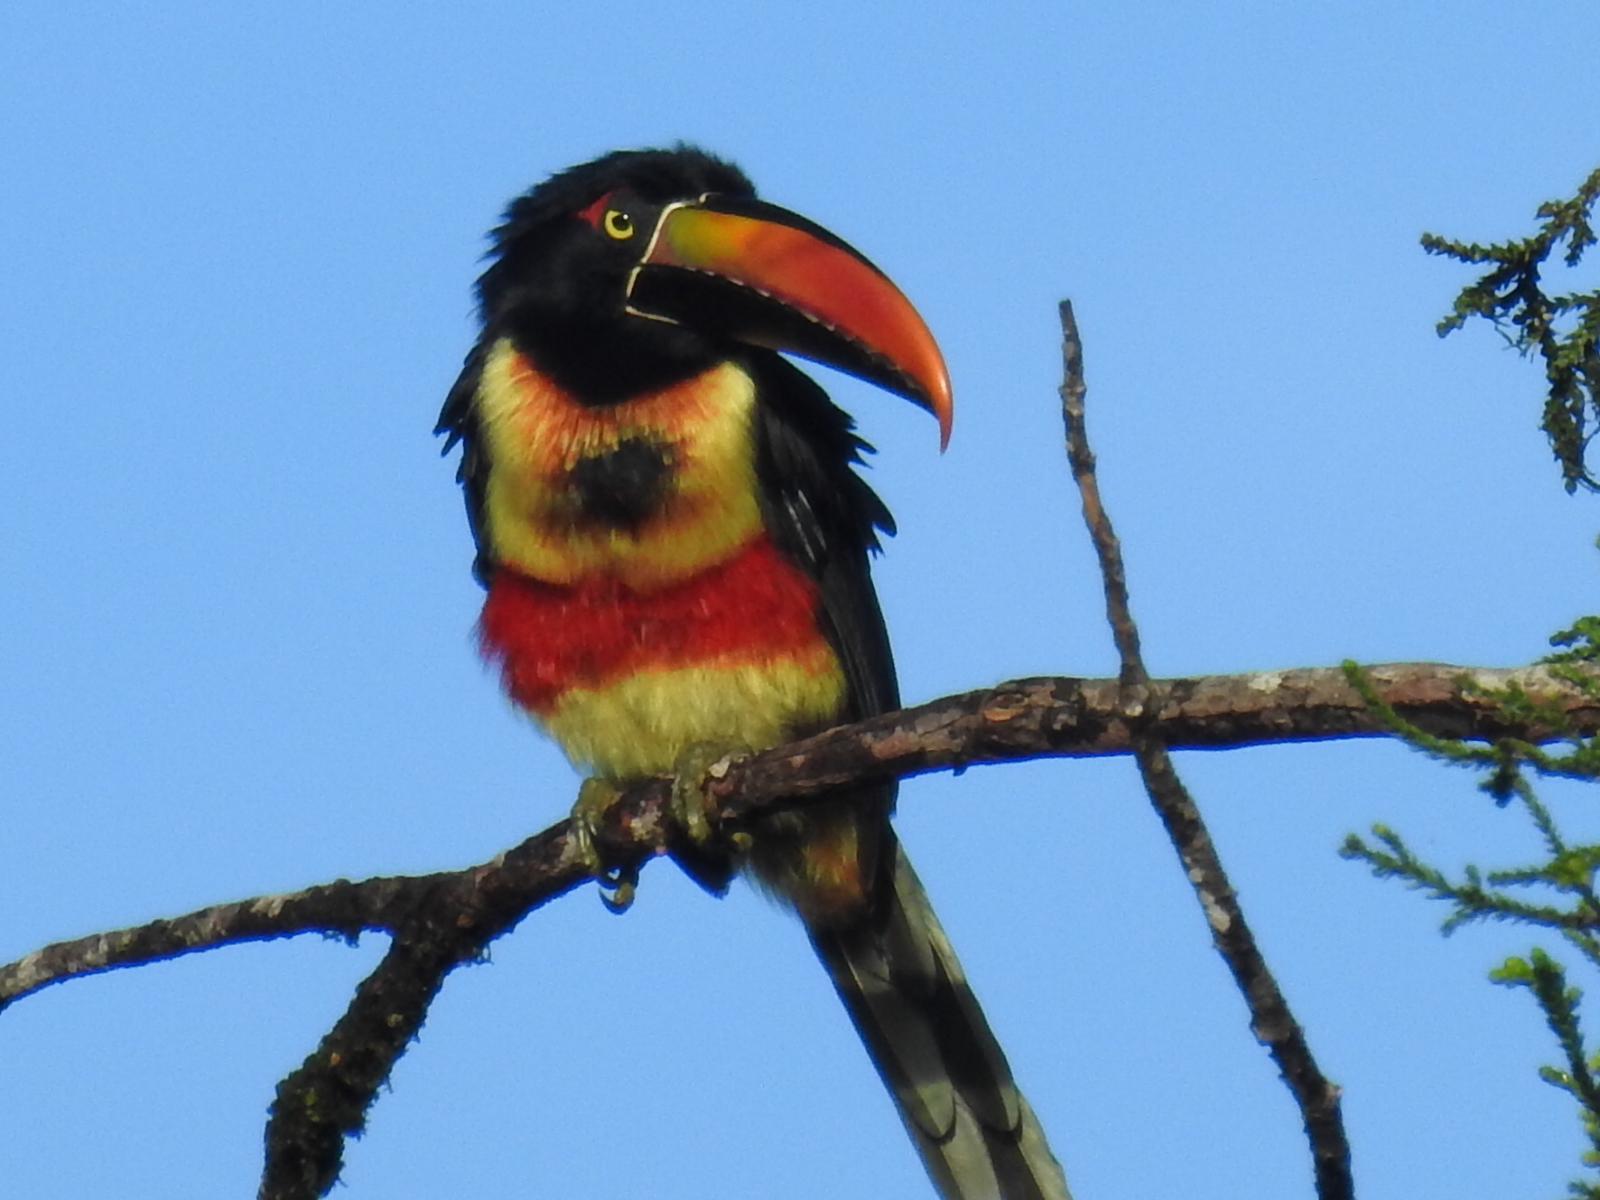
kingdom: Animalia
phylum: Chordata
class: Aves
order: Piciformes
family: Ramphastidae
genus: Pteroglossus
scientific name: Pteroglossus frantzii
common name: Fiery-billed aracari
